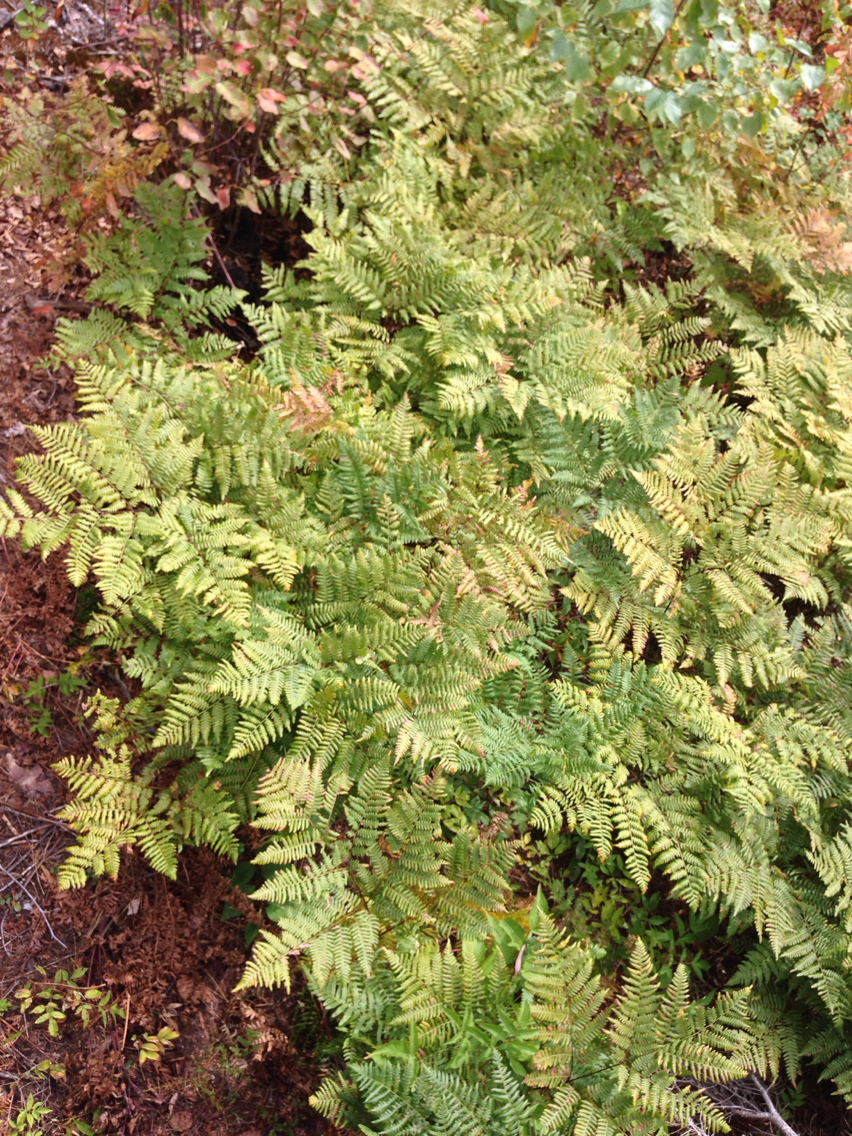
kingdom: Plantae
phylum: Tracheophyta
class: Polypodiopsida
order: Polypodiales
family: Dennstaedtiaceae
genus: Pteridium
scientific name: Pteridium aquilinum
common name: Bracken
